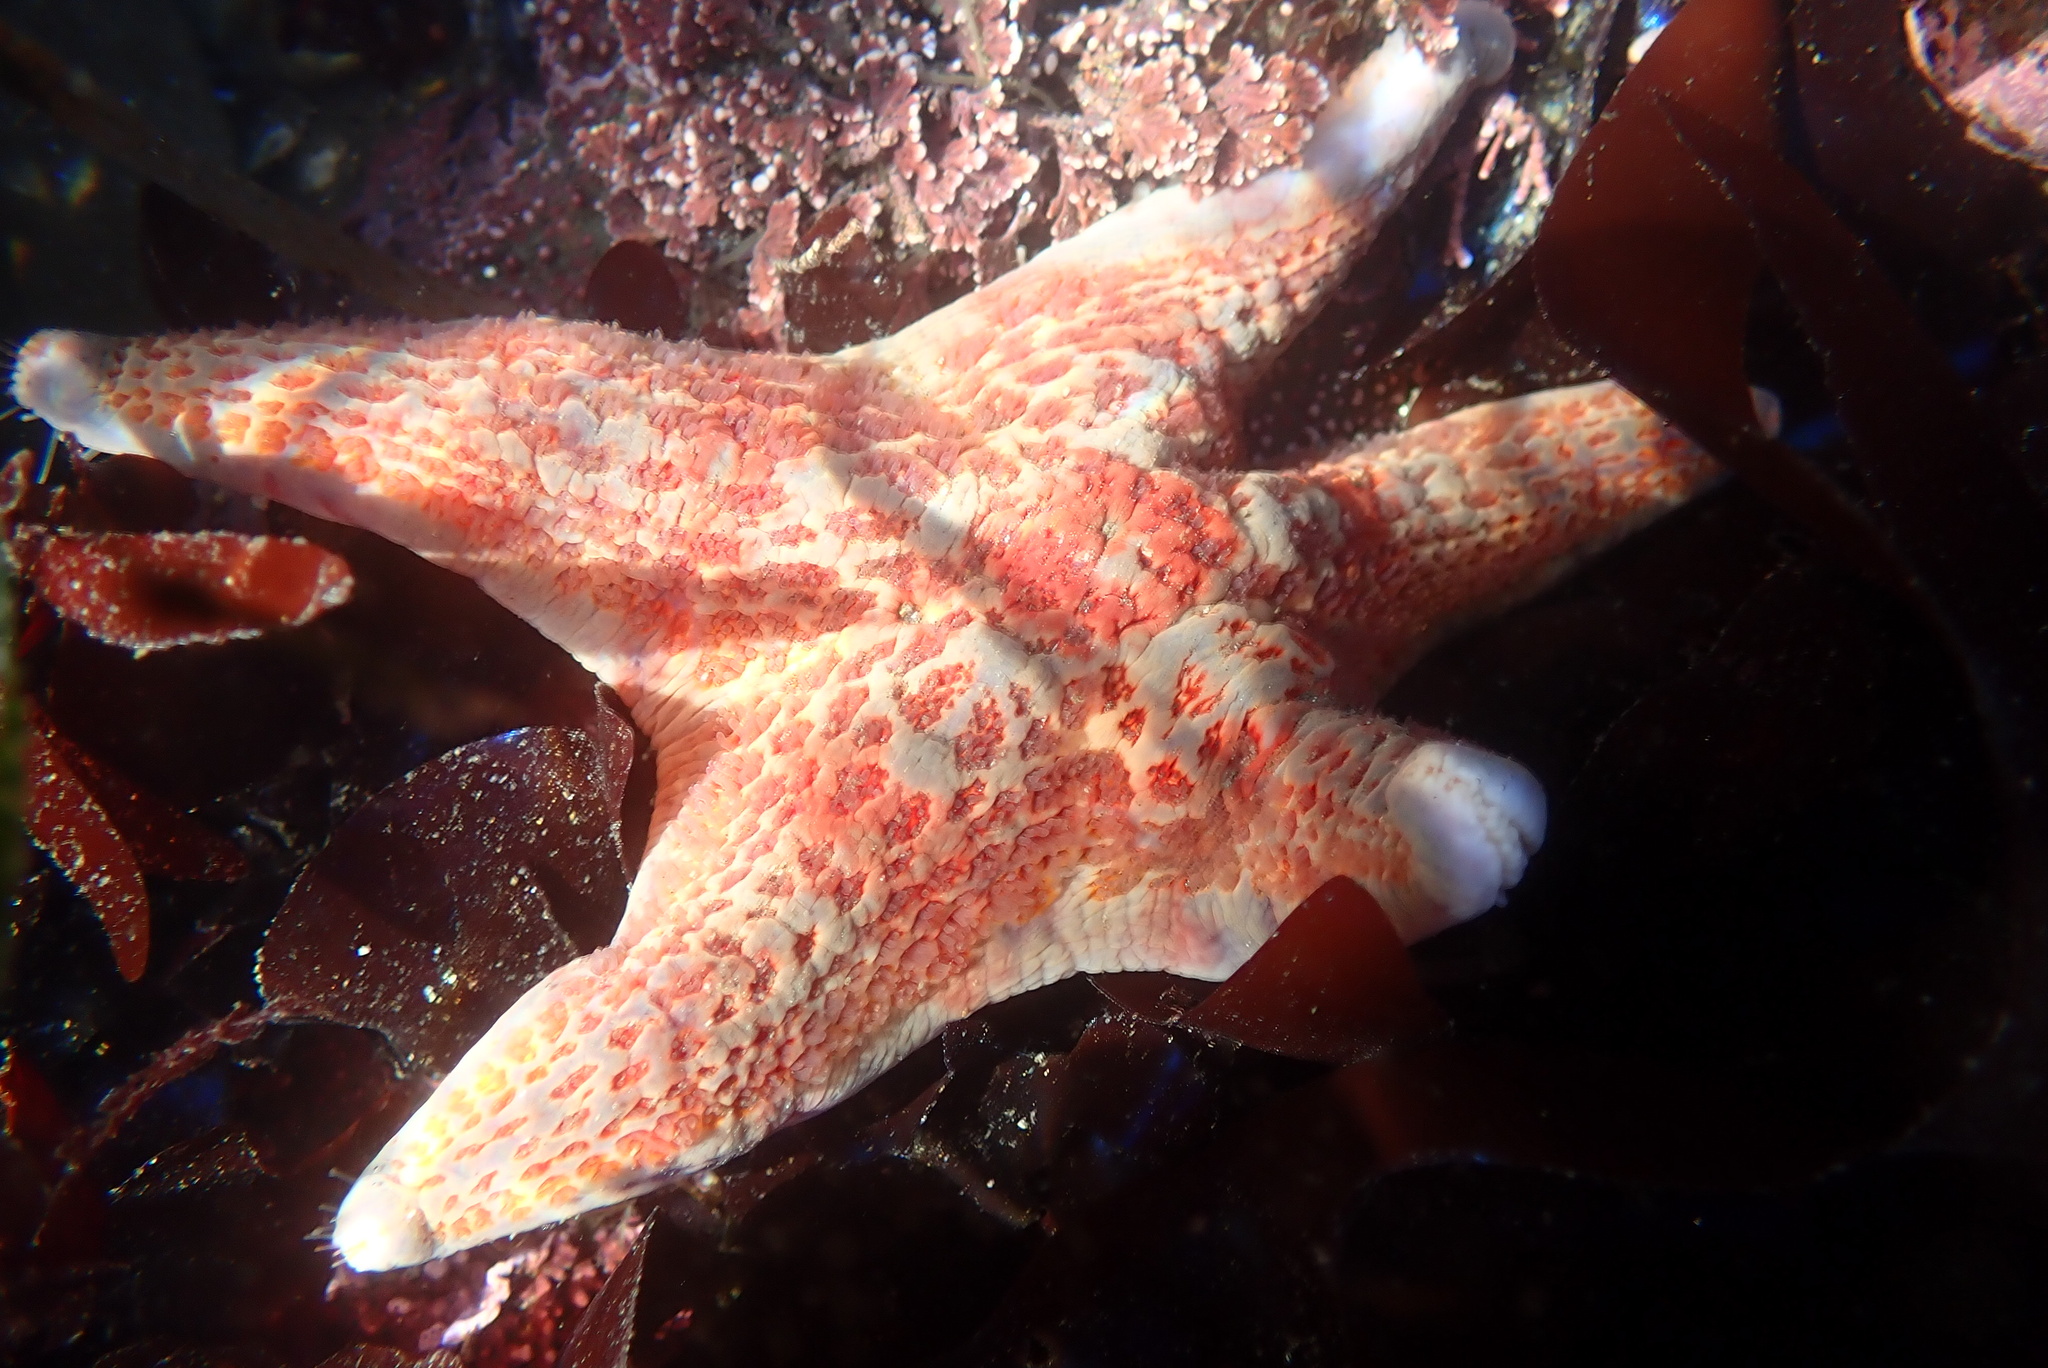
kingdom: Animalia
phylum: Echinodermata
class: Asteroidea
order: Valvatida
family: Asteropseidae
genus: Dermasterias
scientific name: Dermasterias imbricata
